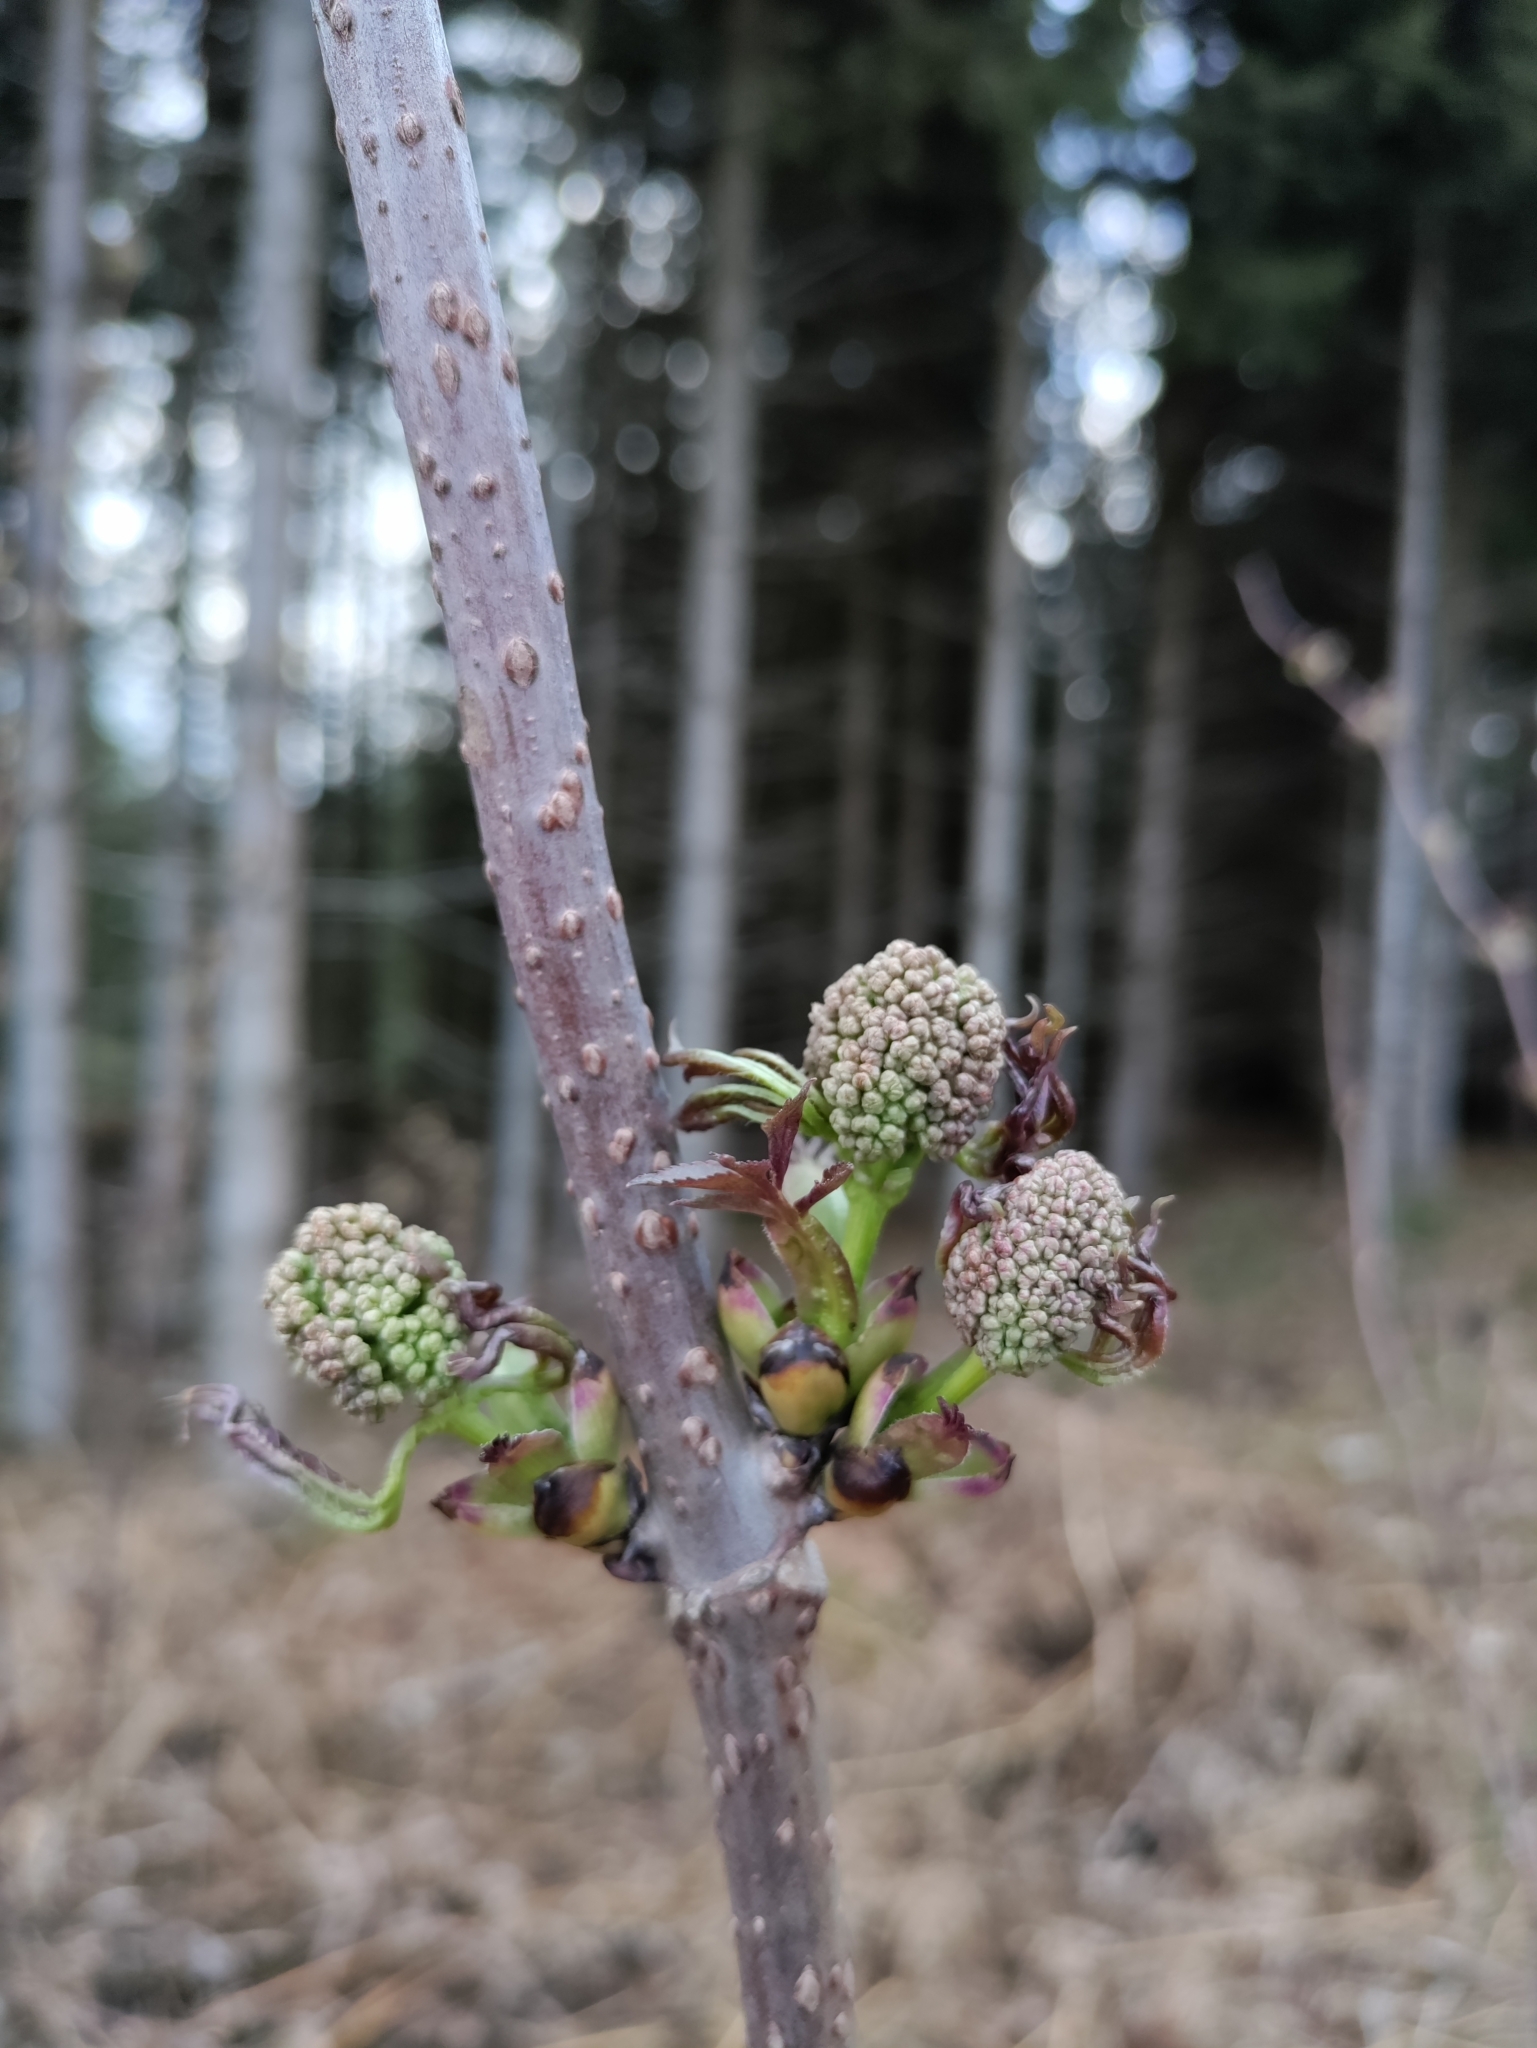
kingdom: Plantae
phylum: Tracheophyta
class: Magnoliopsida
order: Dipsacales
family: Viburnaceae
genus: Sambucus
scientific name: Sambucus racemosa
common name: Red-berried elder
